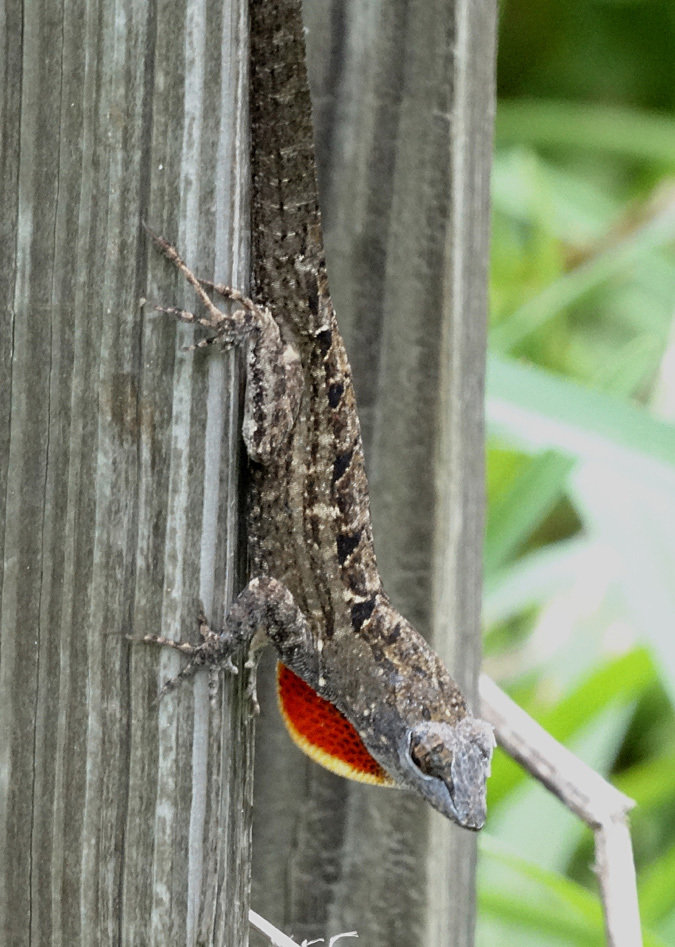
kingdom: Animalia
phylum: Chordata
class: Squamata
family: Dactyloidae
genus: Anolis
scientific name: Anolis sagrei
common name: Brown anole
